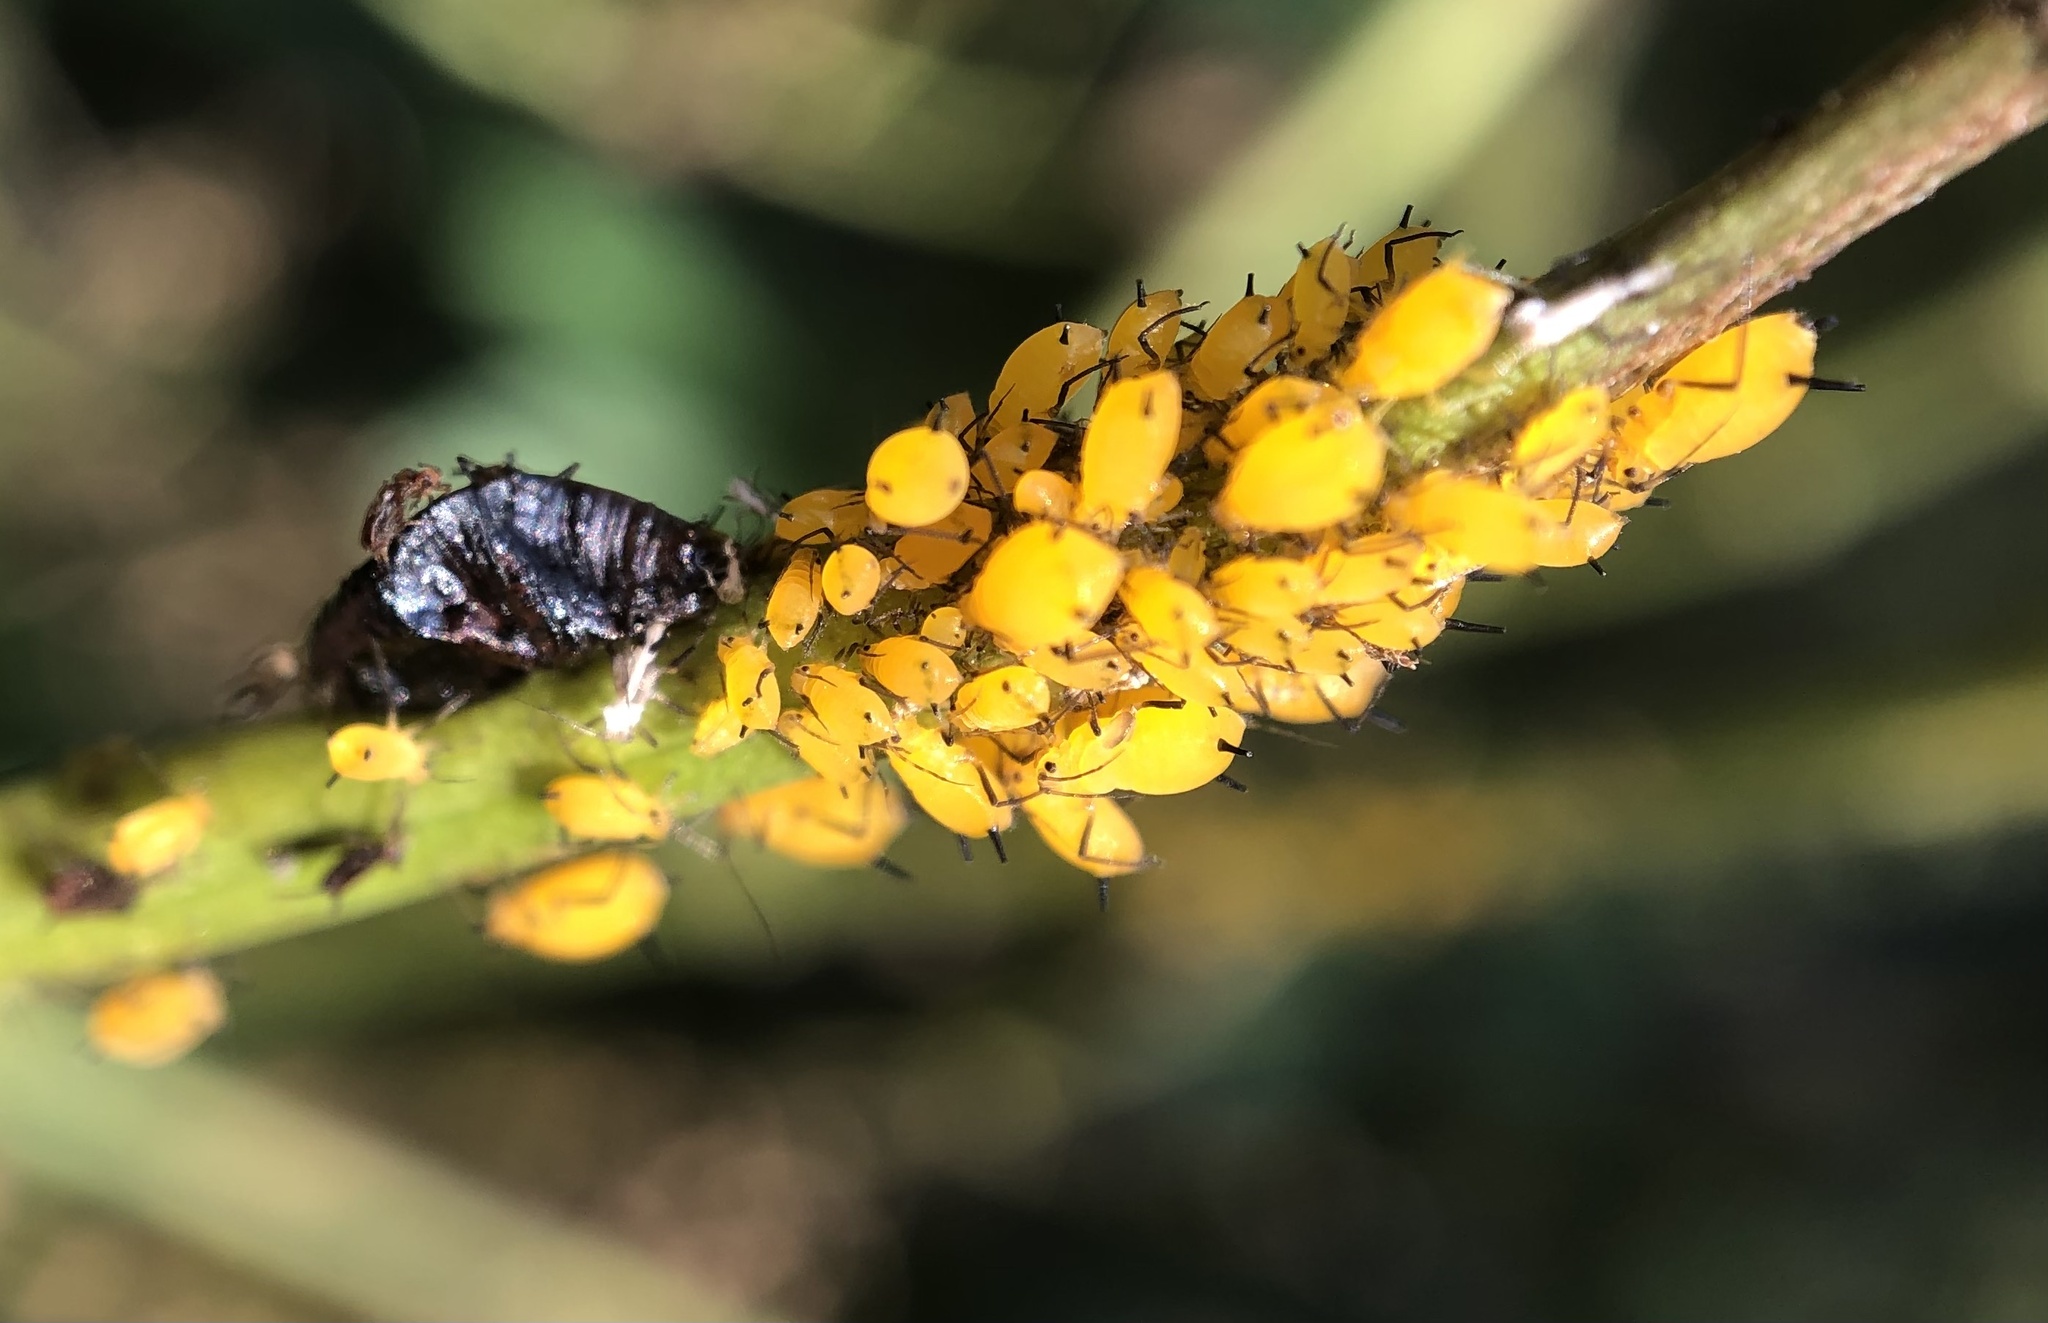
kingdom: Animalia
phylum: Arthropoda
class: Insecta
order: Hemiptera
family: Aphididae
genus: Aphis
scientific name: Aphis nerii
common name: Oleander aphid
